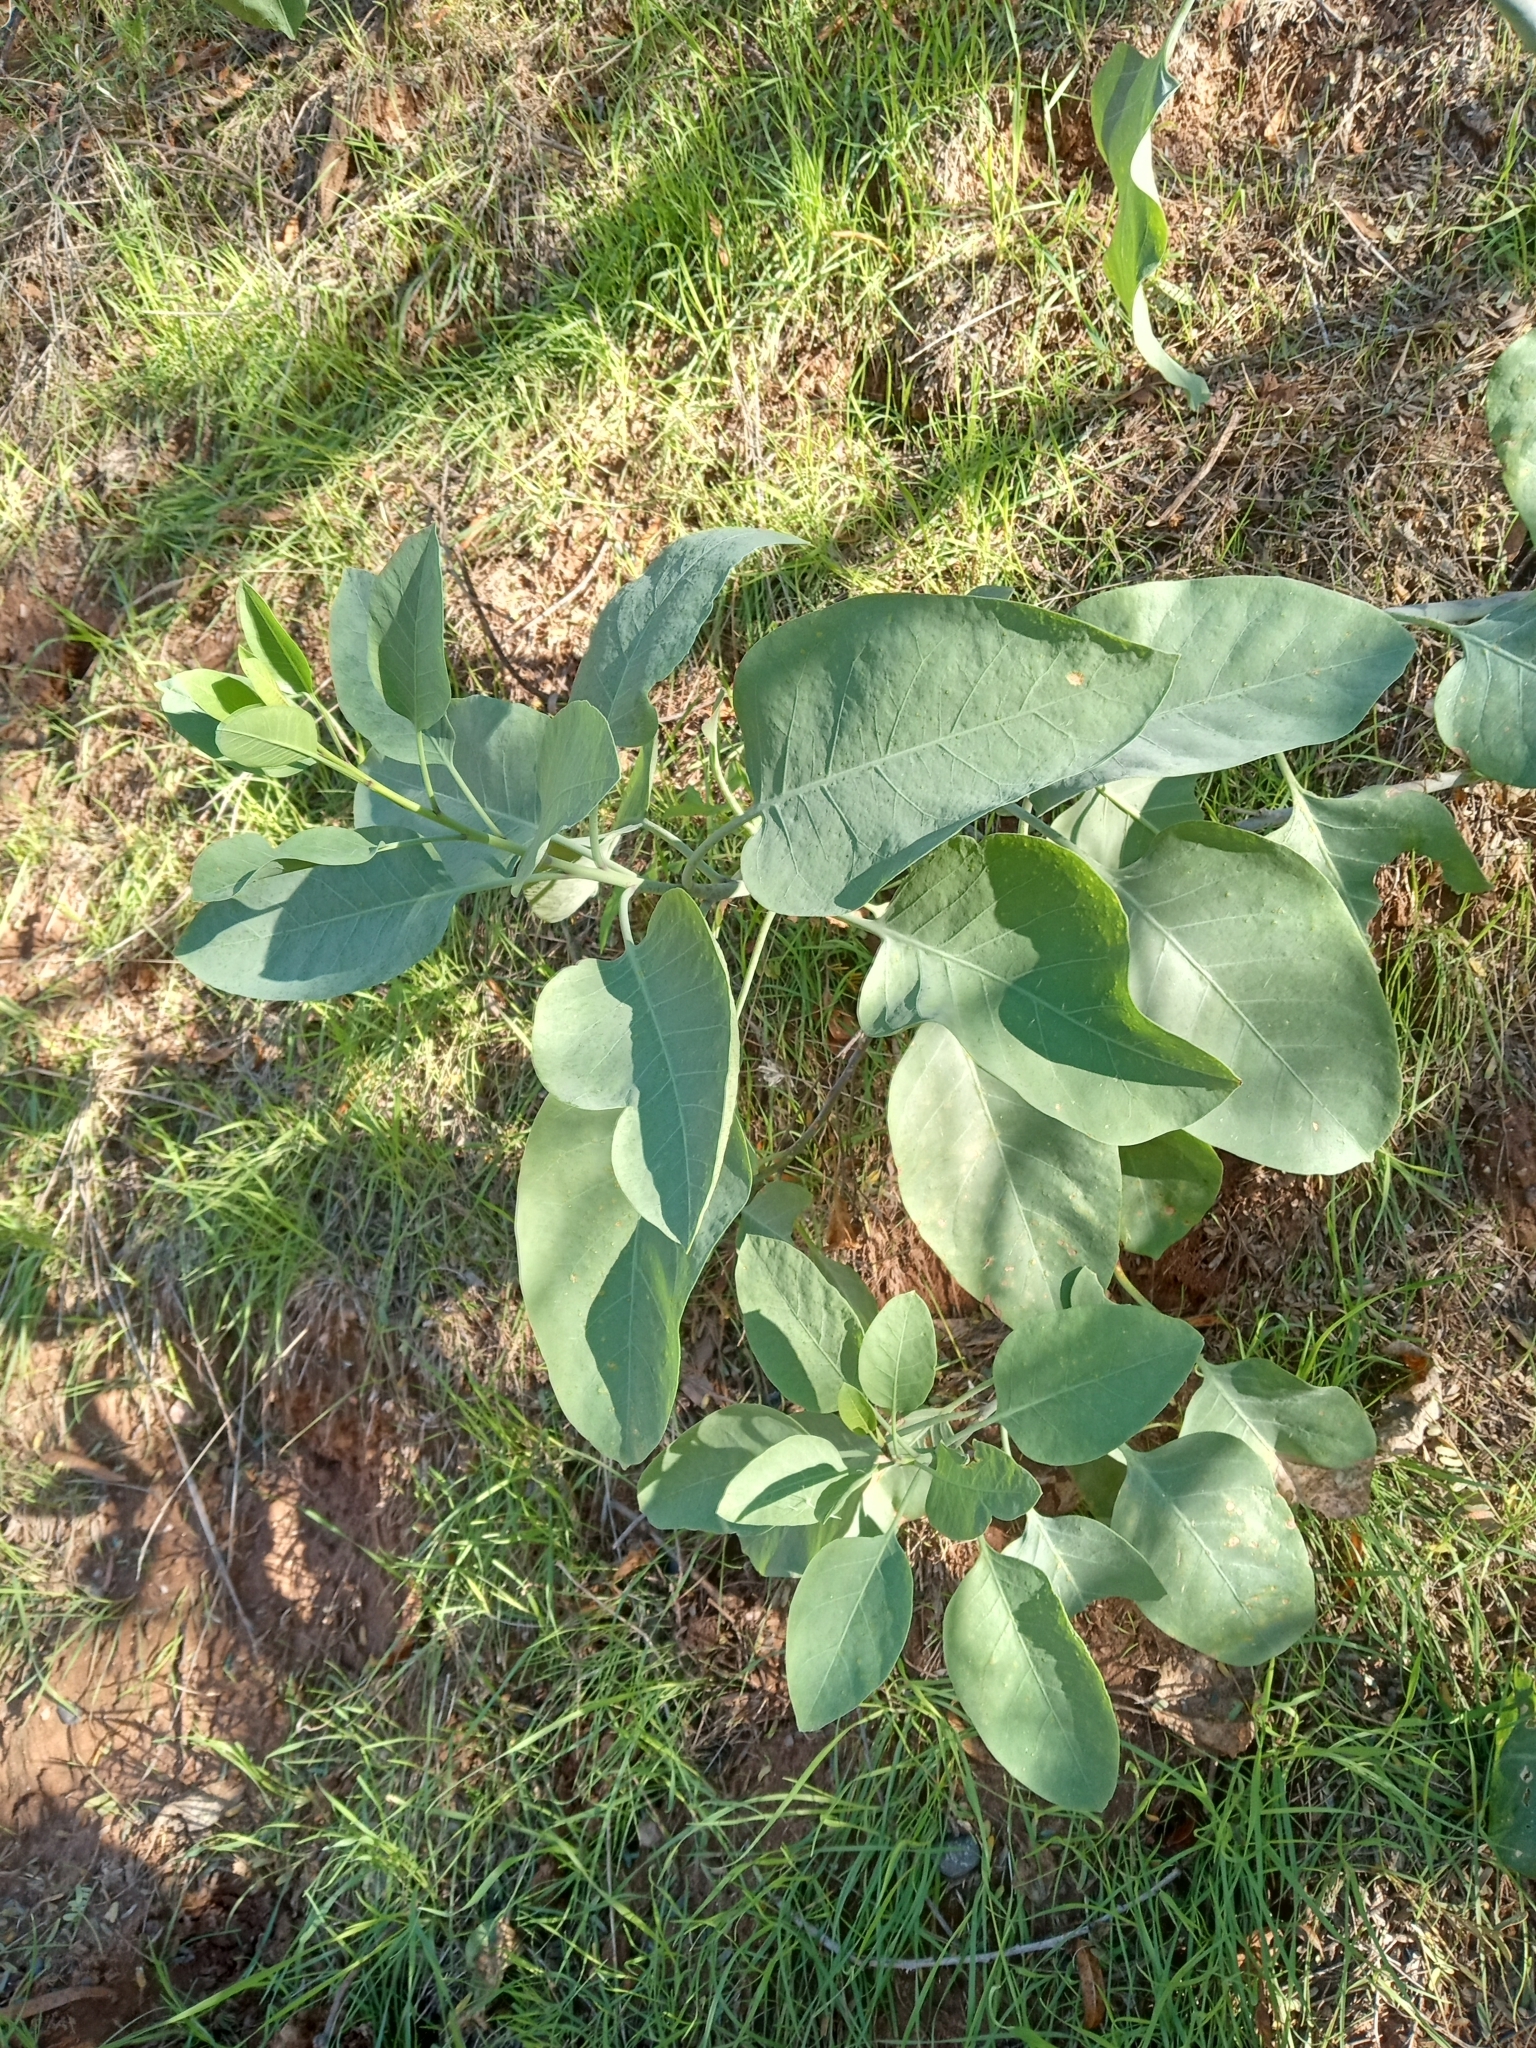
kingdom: Plantae
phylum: Tracheophyta
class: Magnoliopsida
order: Solanales
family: Solanaceae
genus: Nicotiana
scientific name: Nicotiana glauca
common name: Tree tobacco
